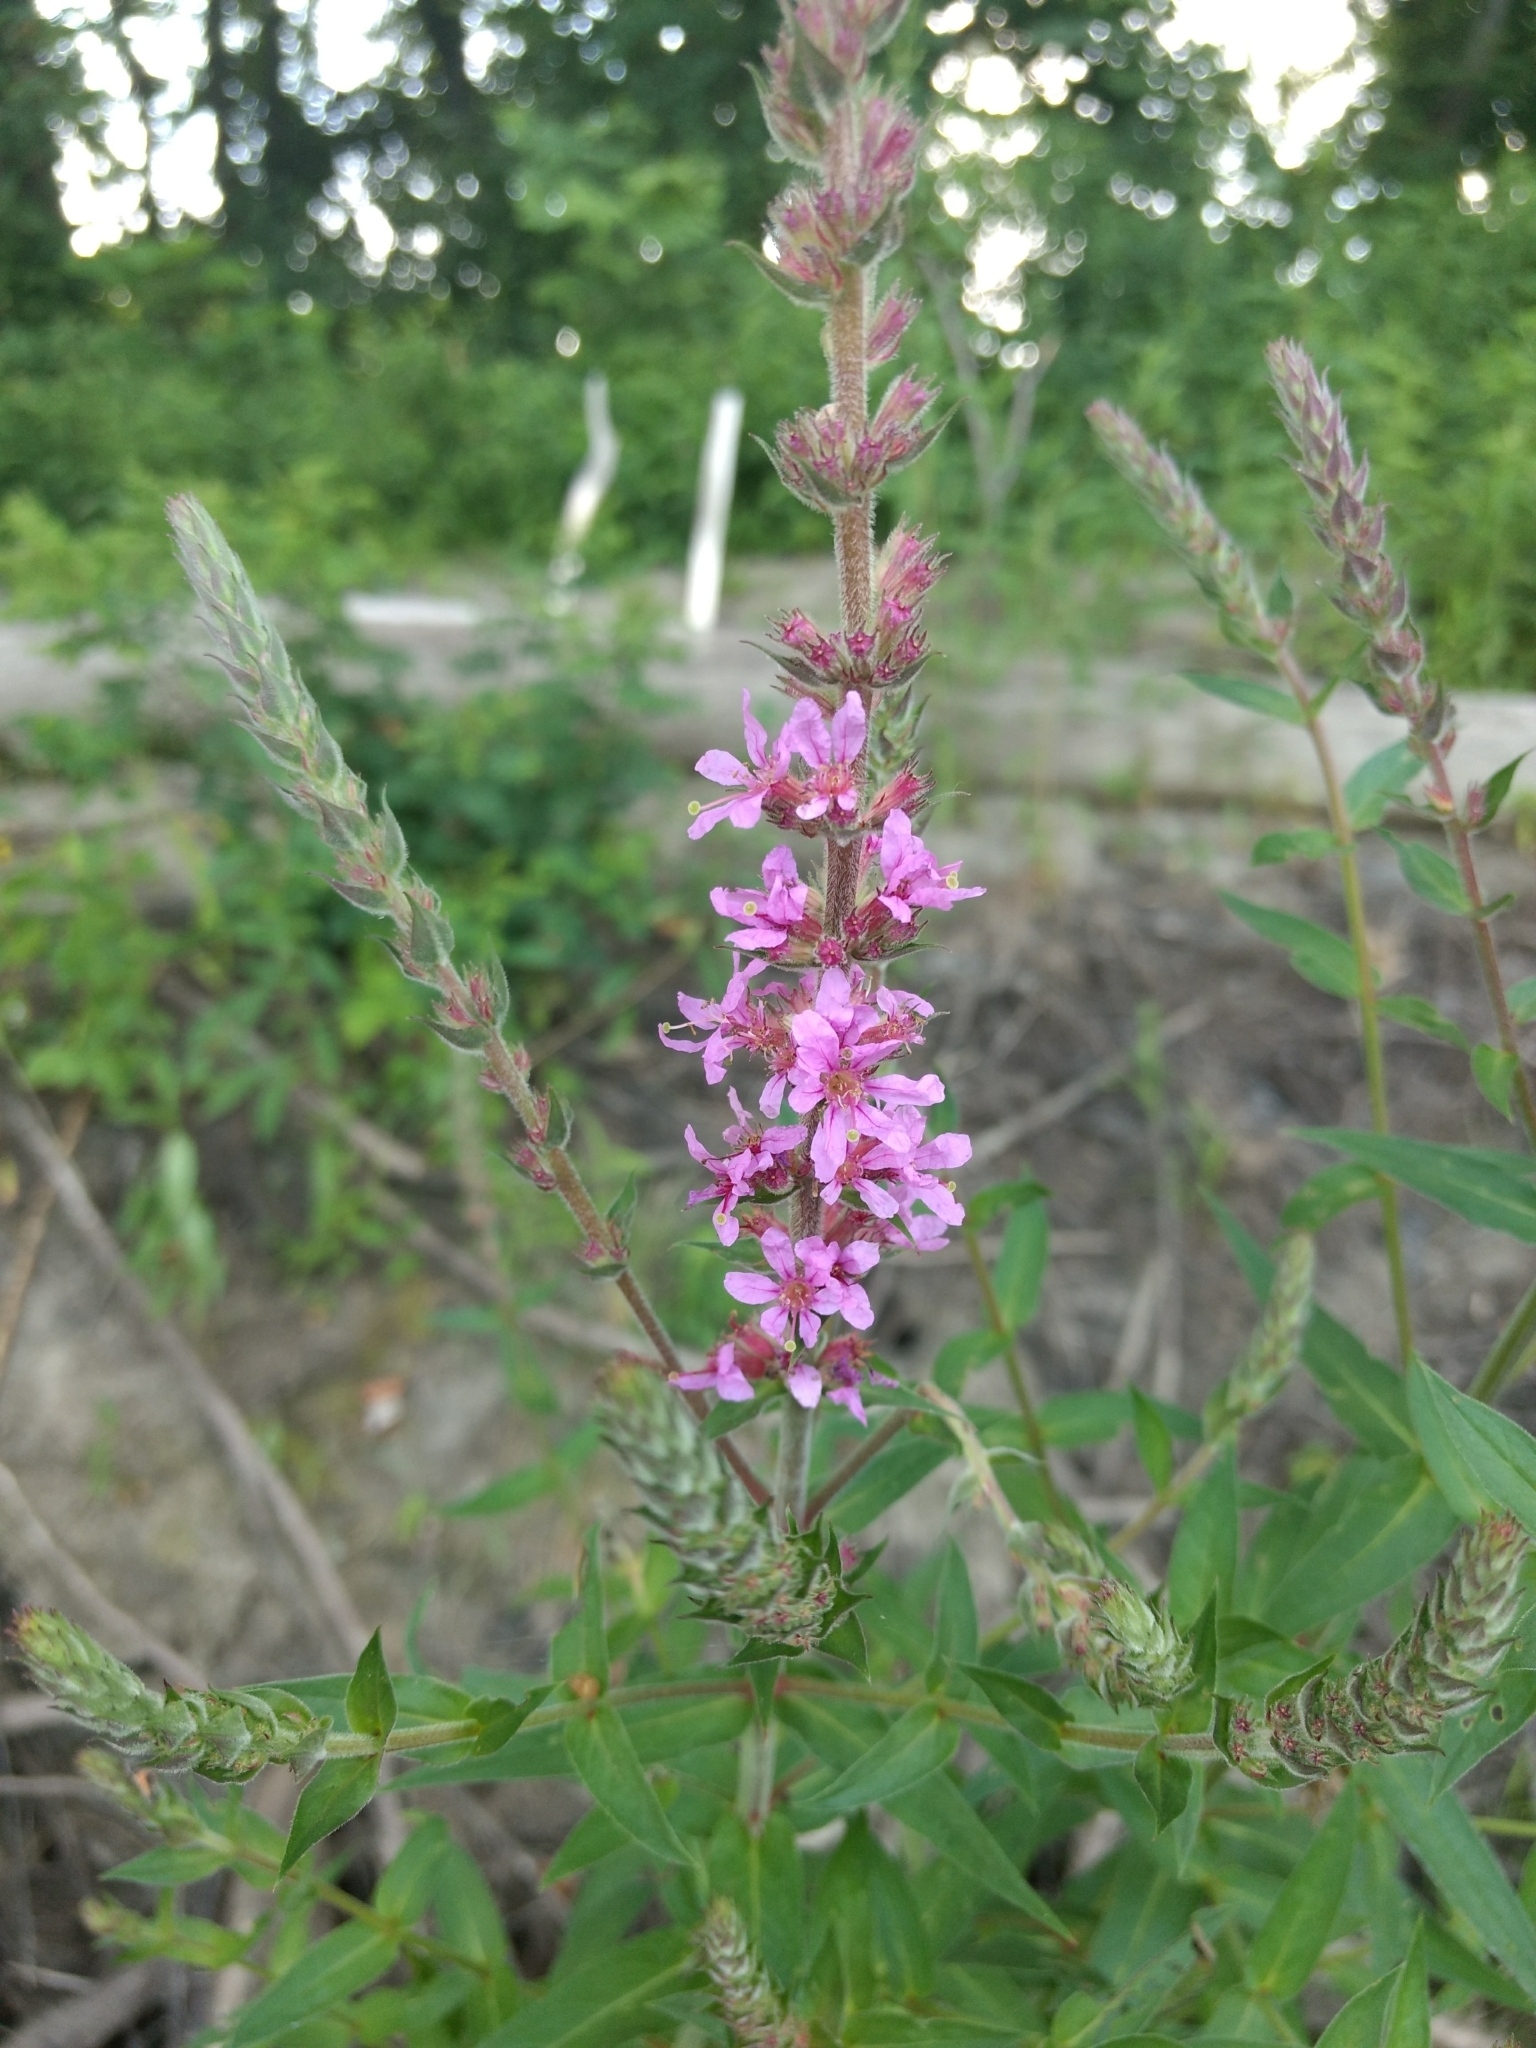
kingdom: Plantae
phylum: Tracheophyta
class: Magnoliopsida
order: Myrtales
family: Lythraceae
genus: Lythrum
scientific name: Lythrum salicaria
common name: Purple loosestrife
